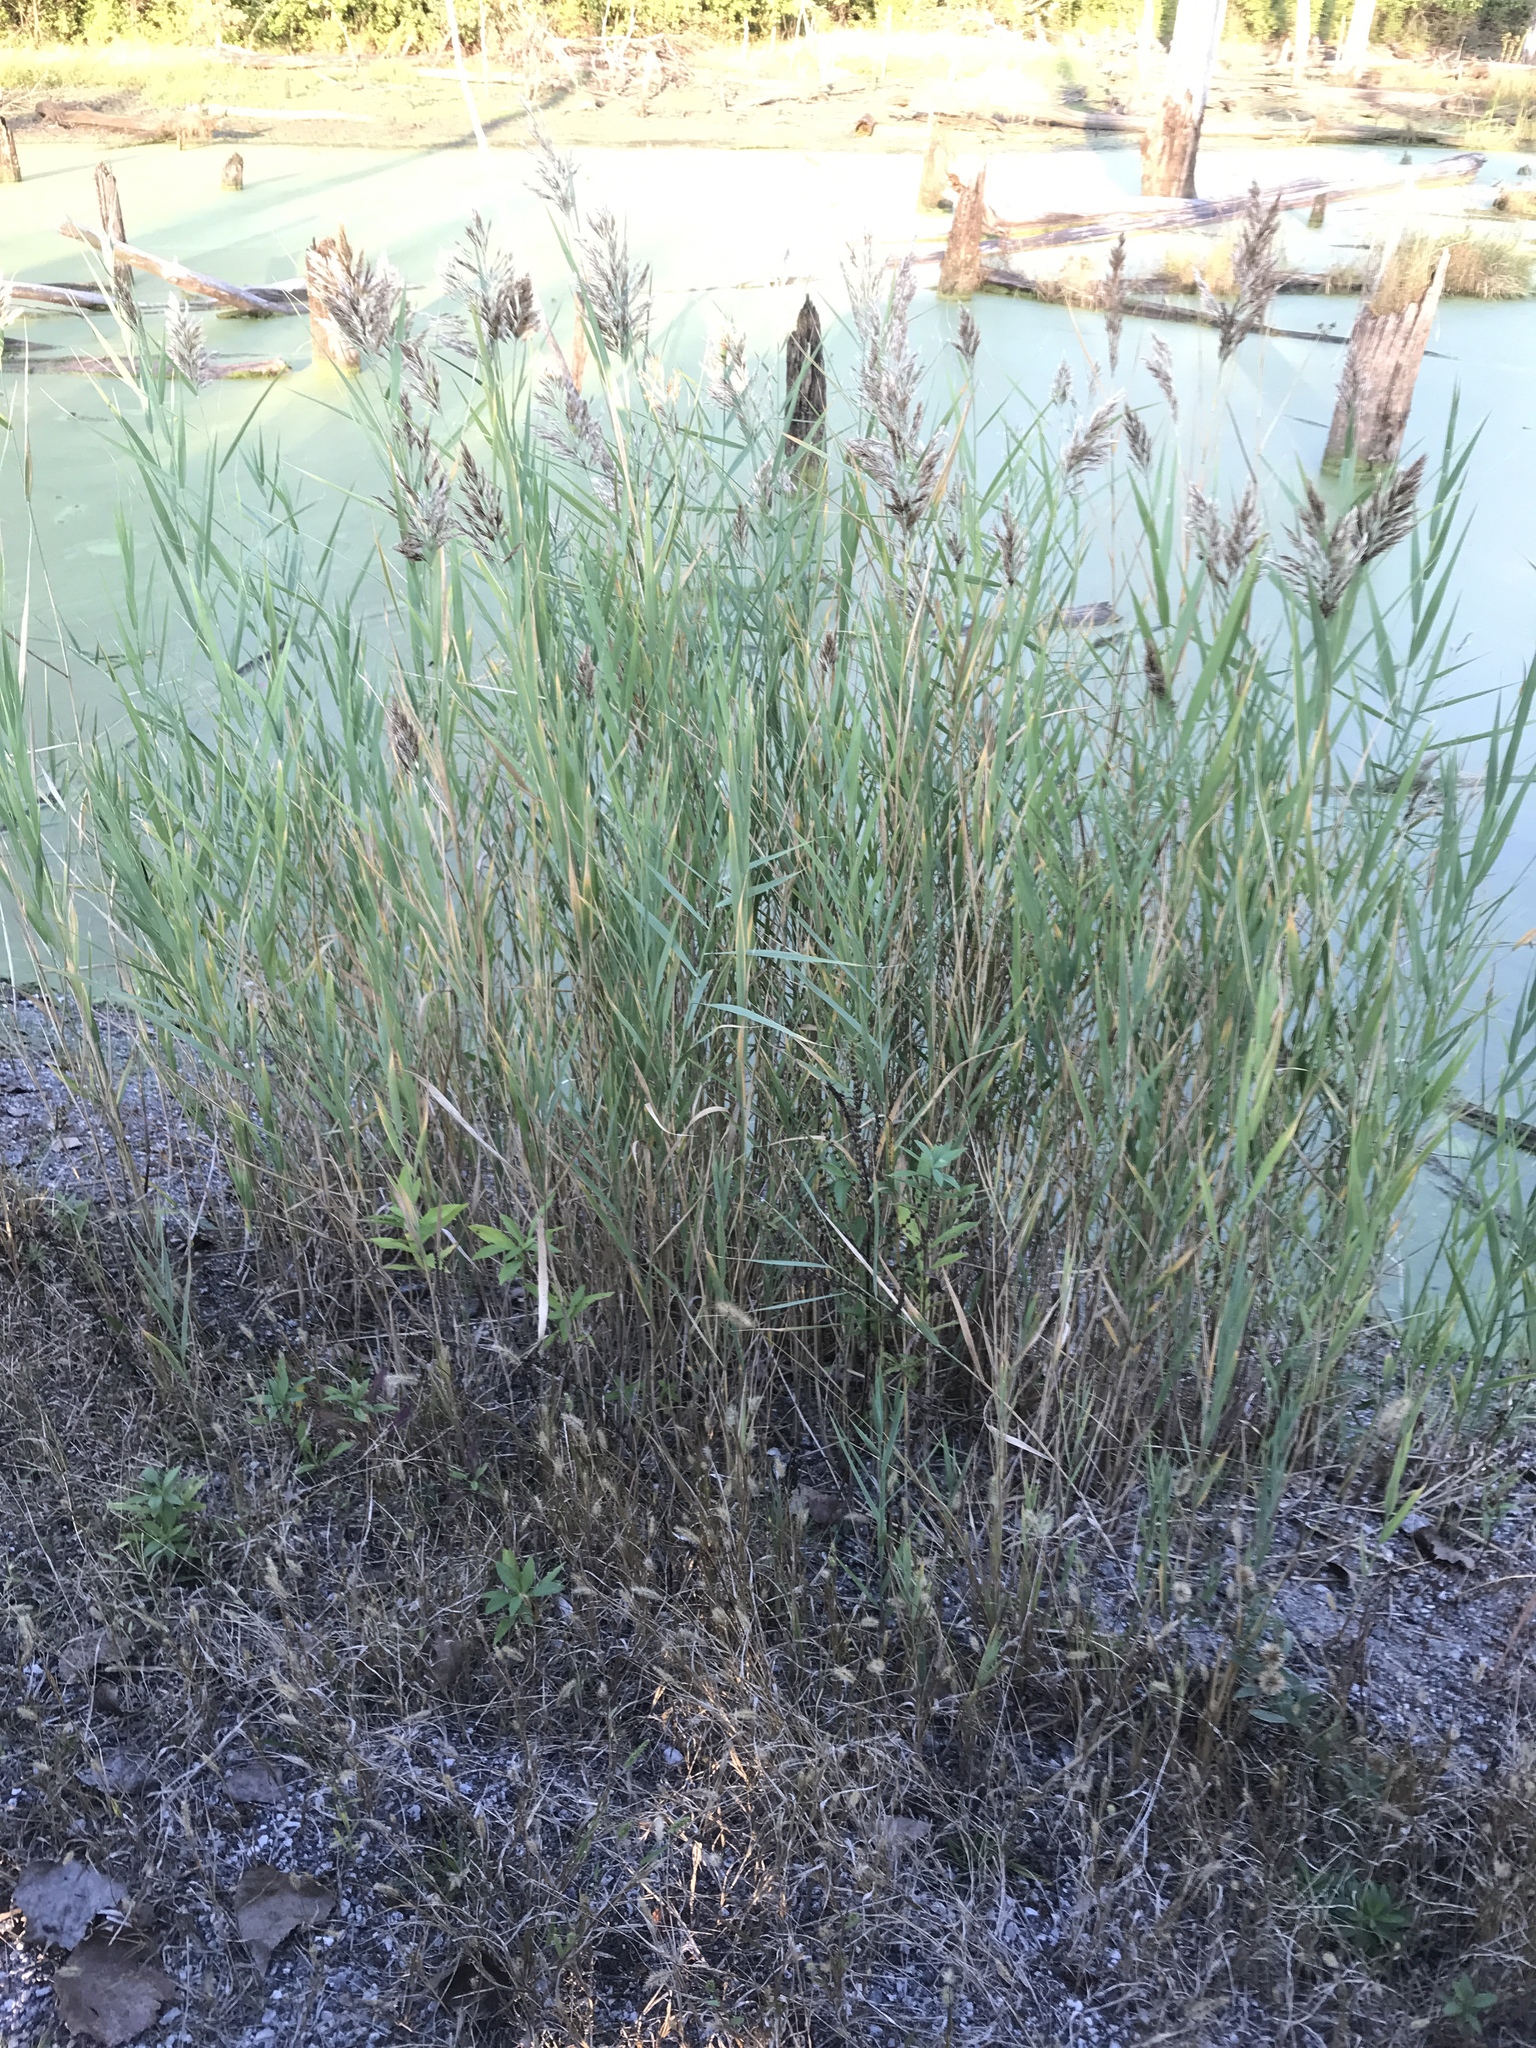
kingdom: Plantae
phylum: Tracheophyta
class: Liliopsida
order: Poales
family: Poaceae
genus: Phragmites
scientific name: Phragmites australis
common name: Common reed
